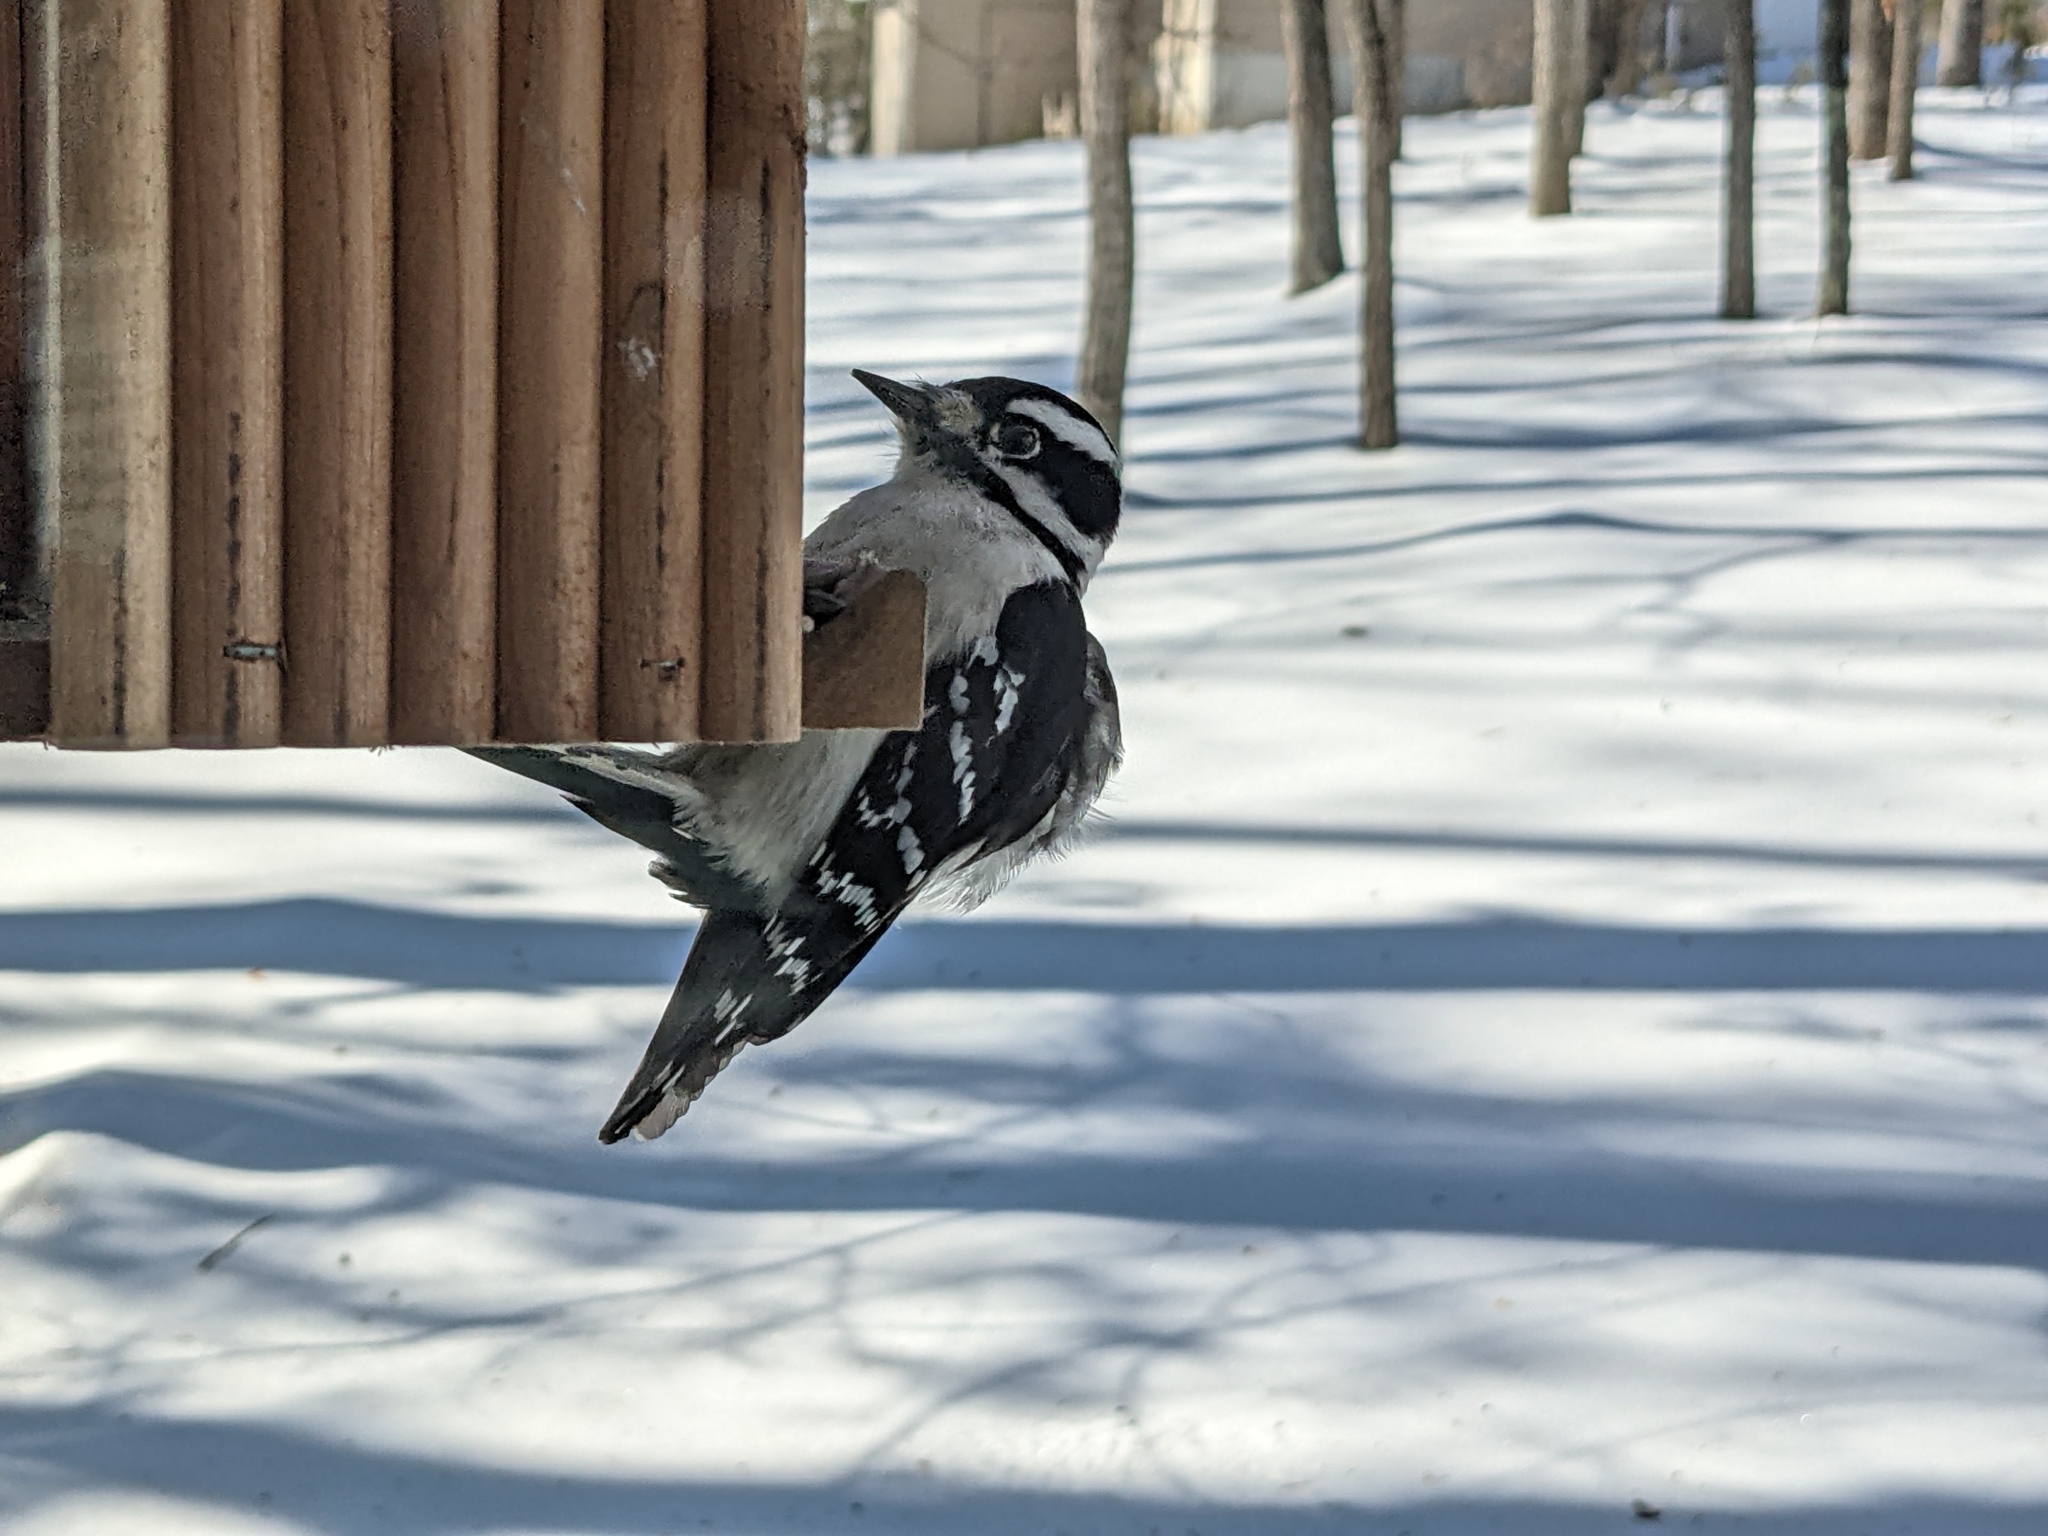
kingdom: Animalia
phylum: Chordata
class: Aves
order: Piciformes
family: Picidae
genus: Dryobates
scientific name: Dryobates pubescens
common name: Downy woodpecker
